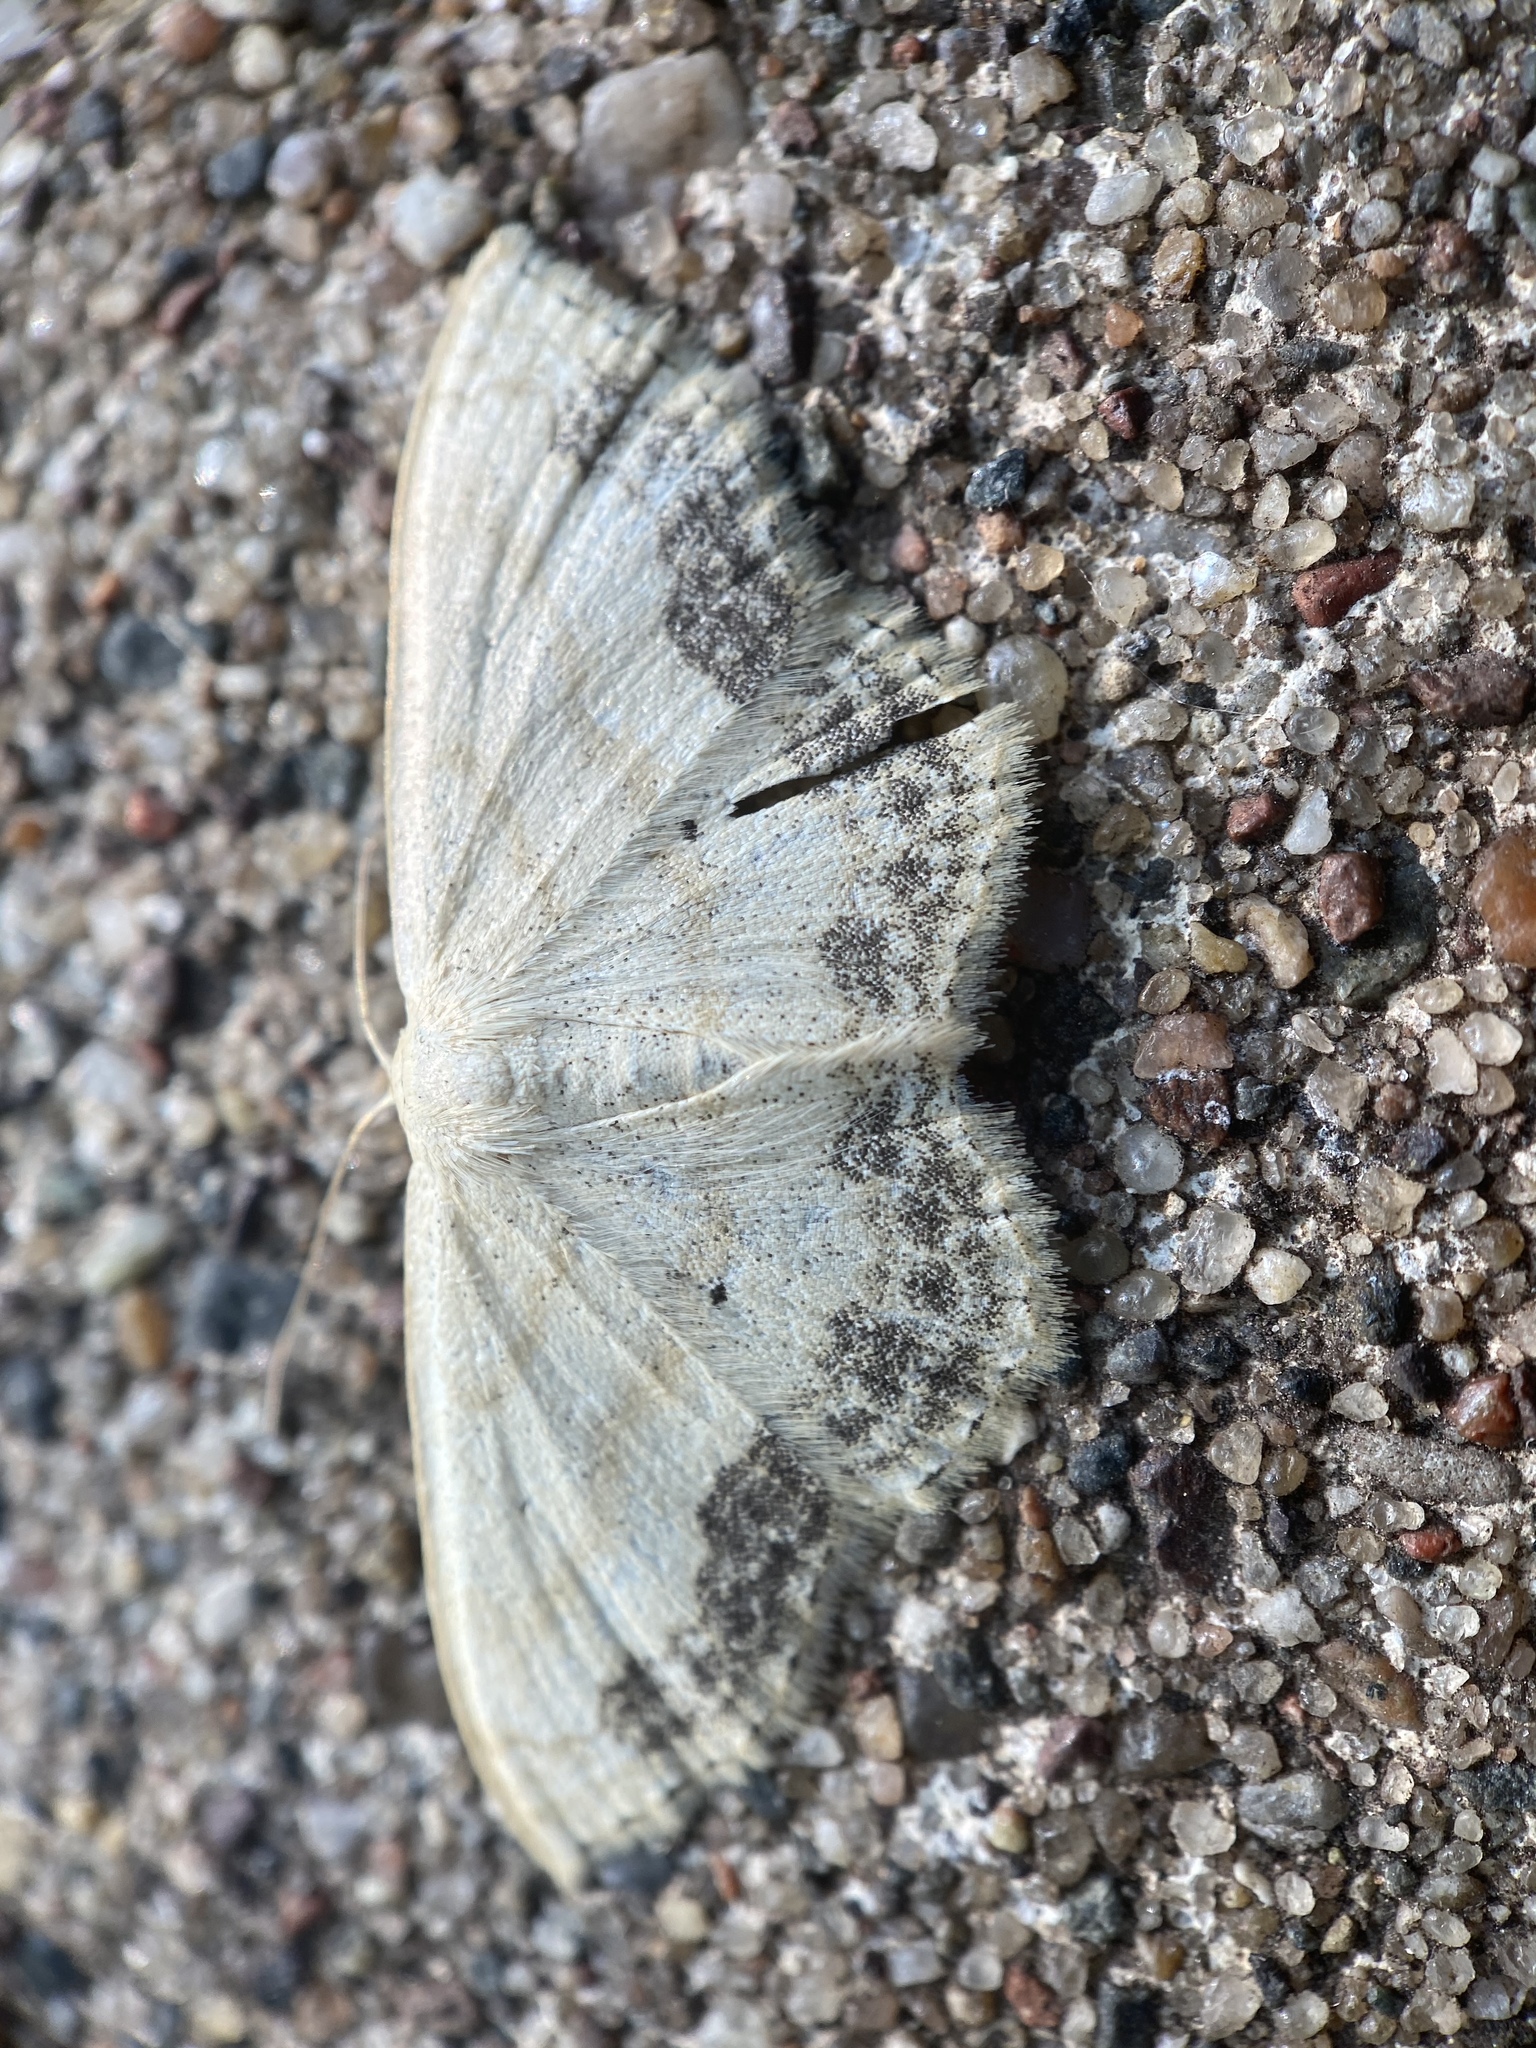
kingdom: Animalia
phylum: Arthropoda
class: Insecta
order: Lepidoptera
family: Geometridae
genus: Scopula
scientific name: Scopula limboundata
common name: Large lace border
